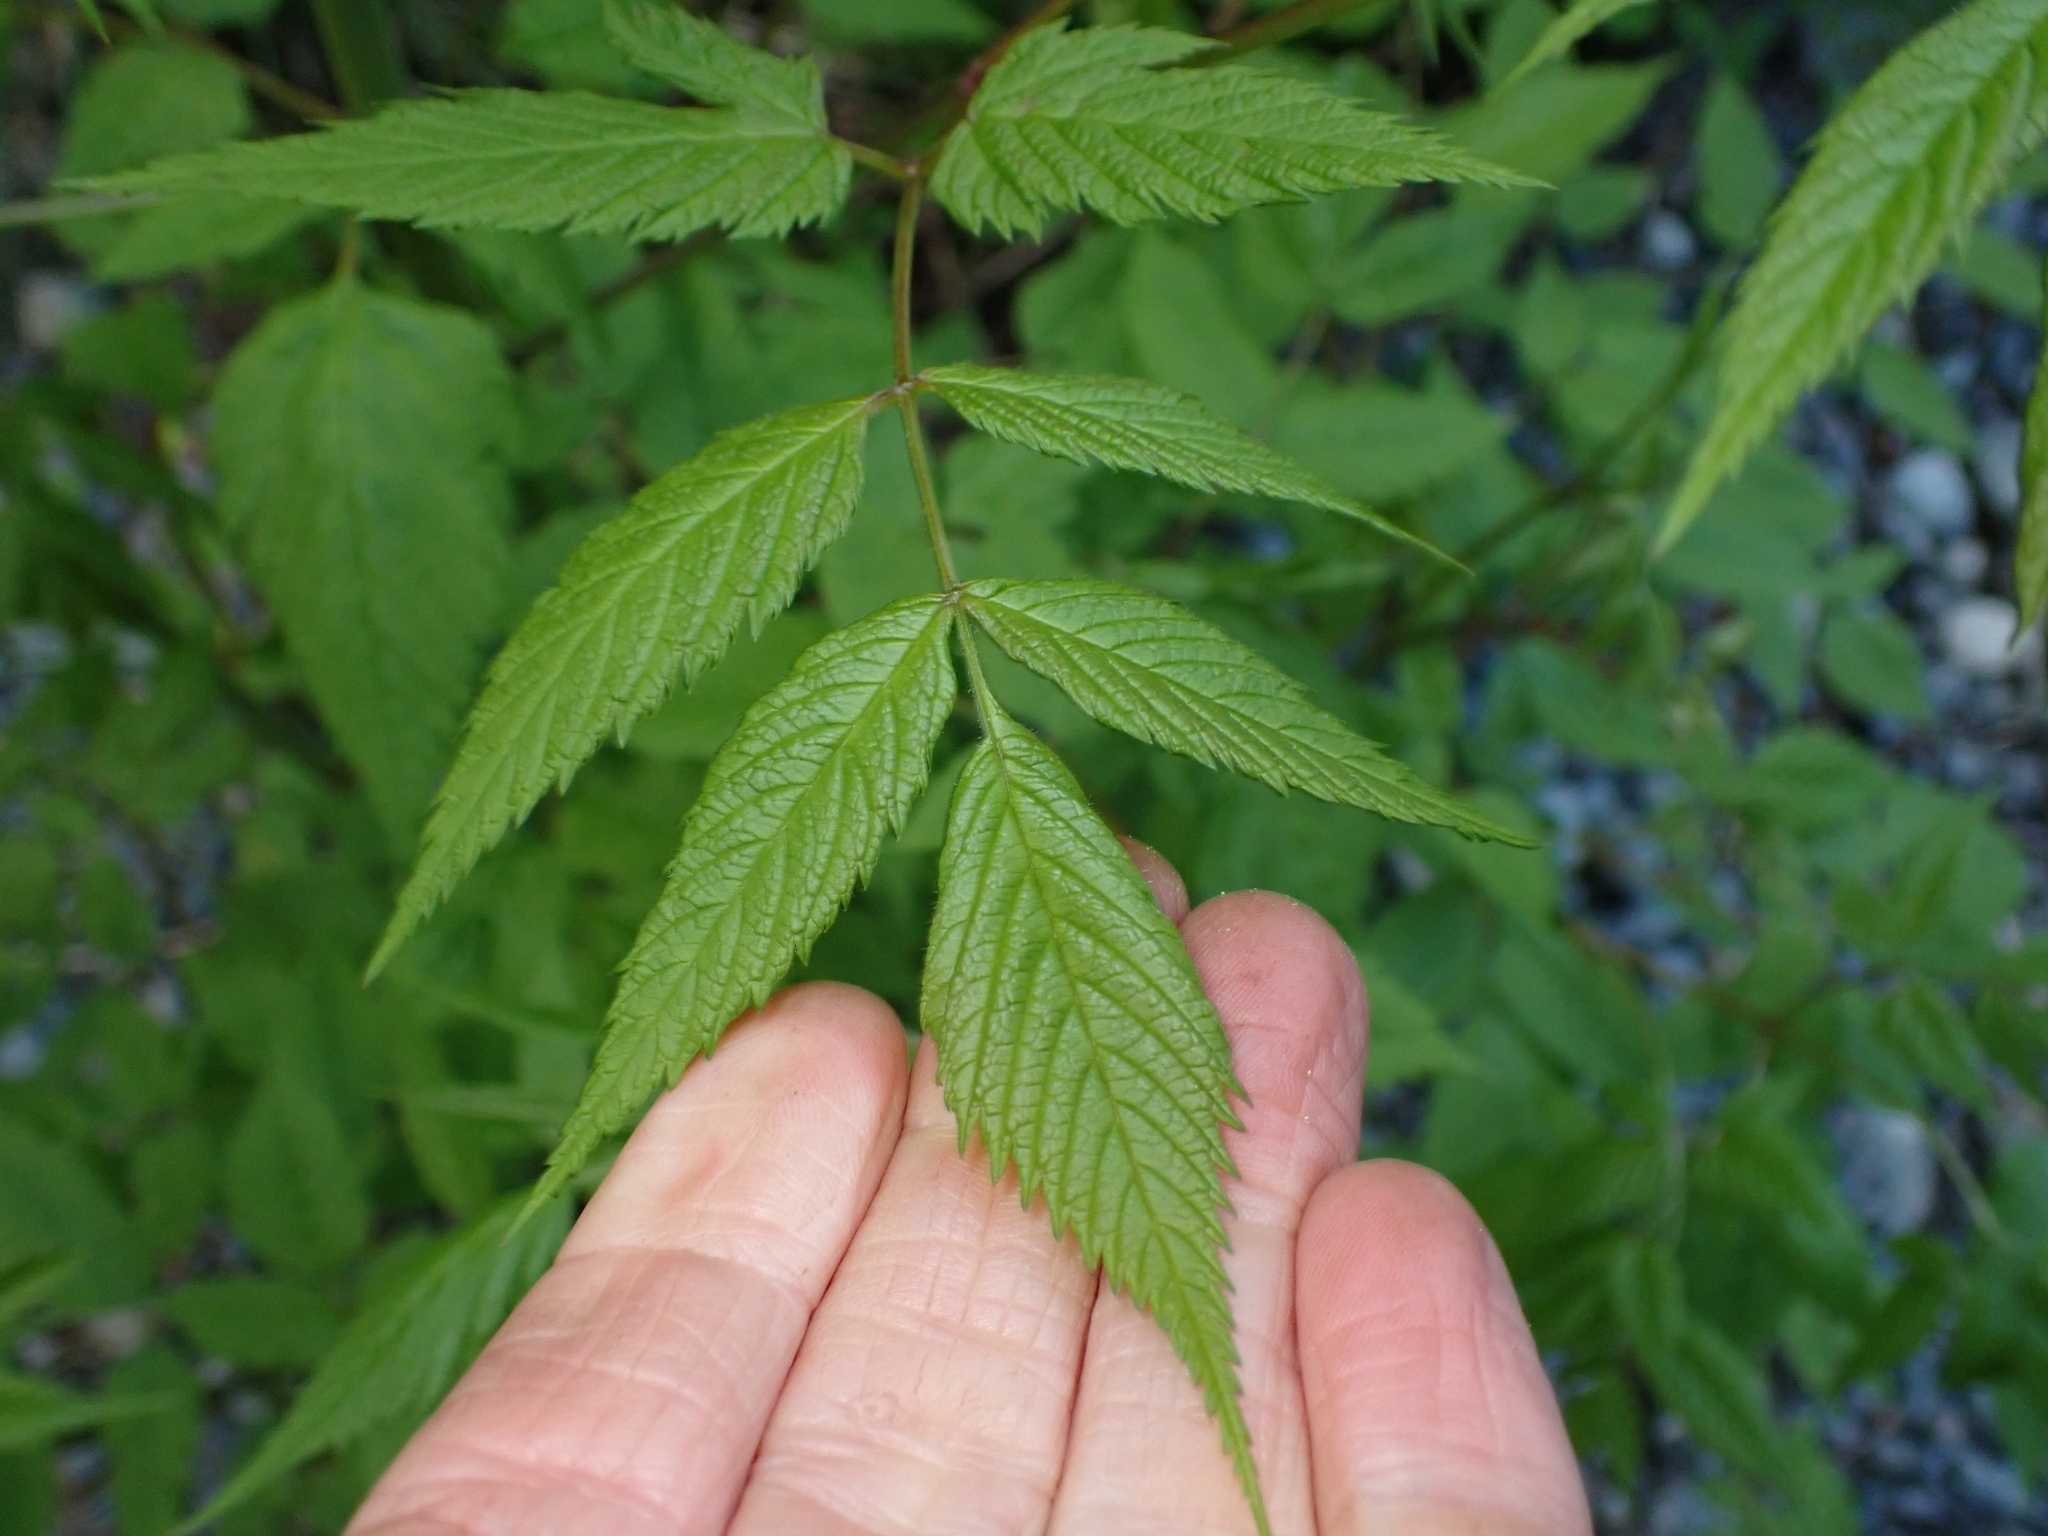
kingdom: Plantae
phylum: Tracheophyta
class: Magnoliopsida
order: Rosales
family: Rosaceae
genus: Aruncus
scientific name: Aruncus dioicus
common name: Buck's-beard
